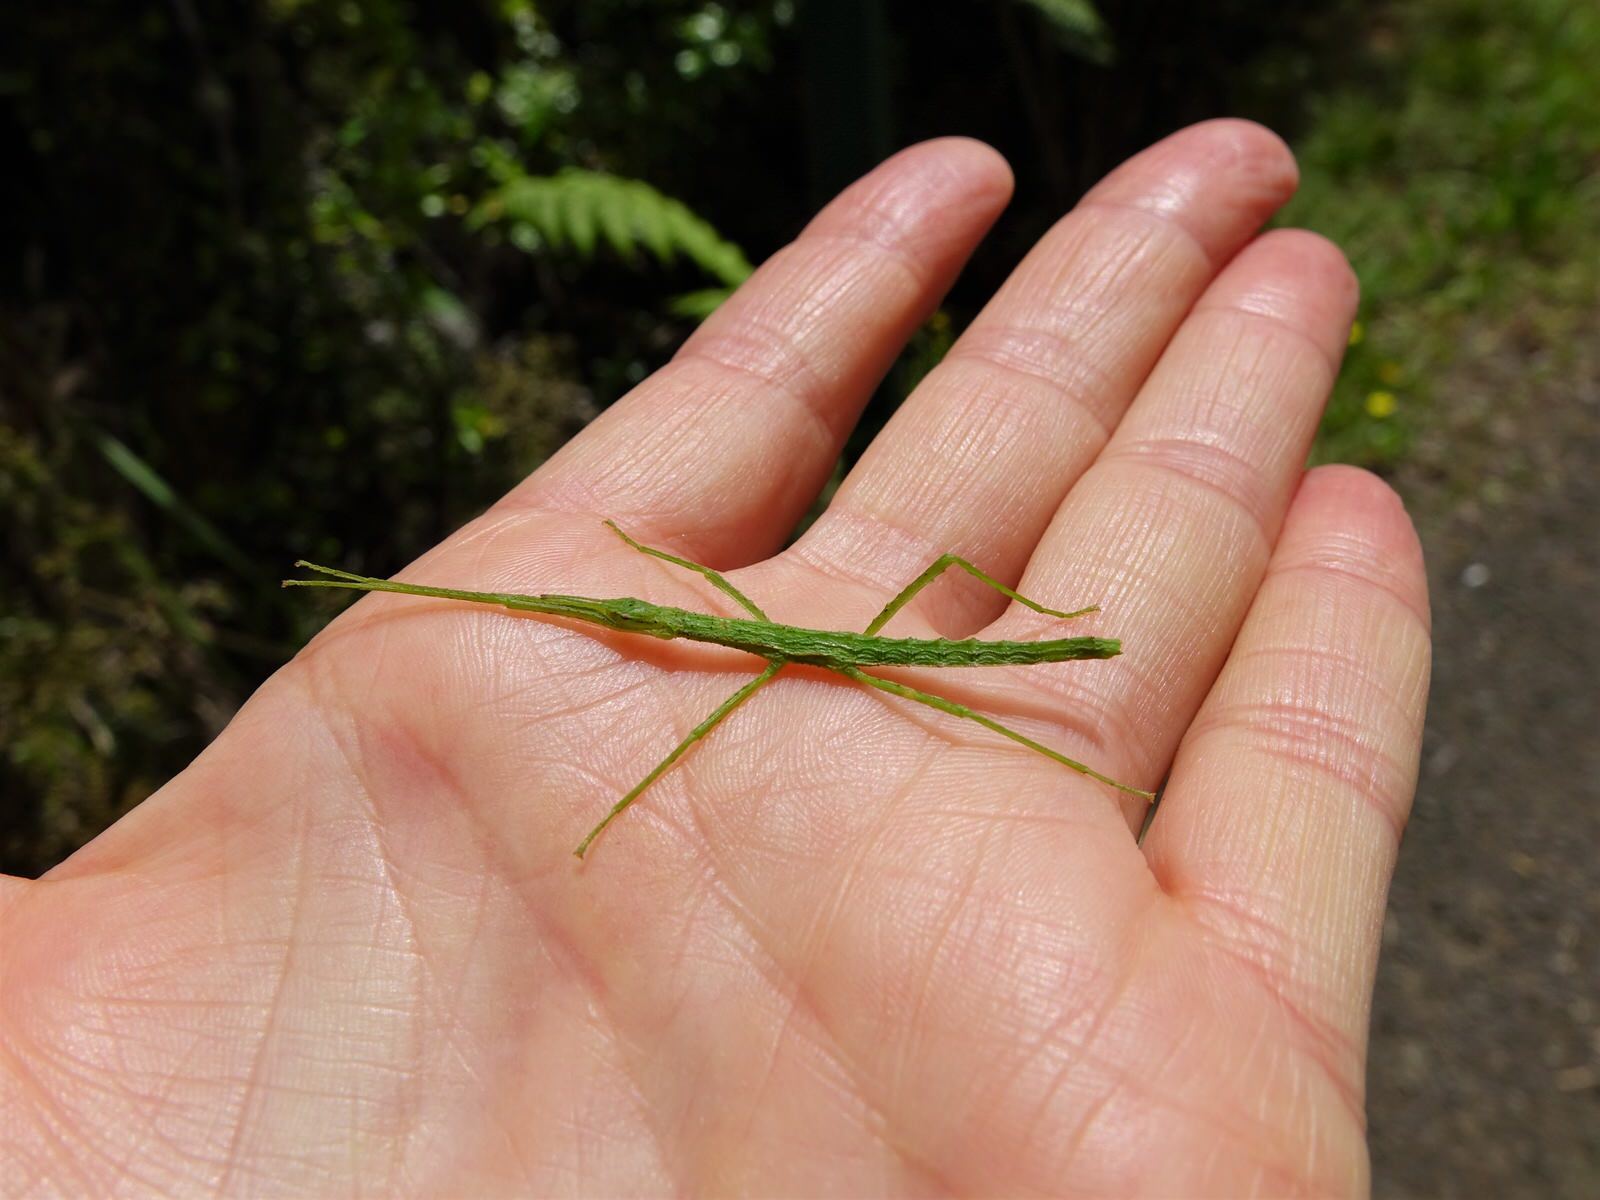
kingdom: Animalia
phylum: Arthropoda
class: Insecta
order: Phasmida
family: Phasmatidae
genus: Clitarchus
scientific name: Clitarchus hookeri
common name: Smooth stick insect
